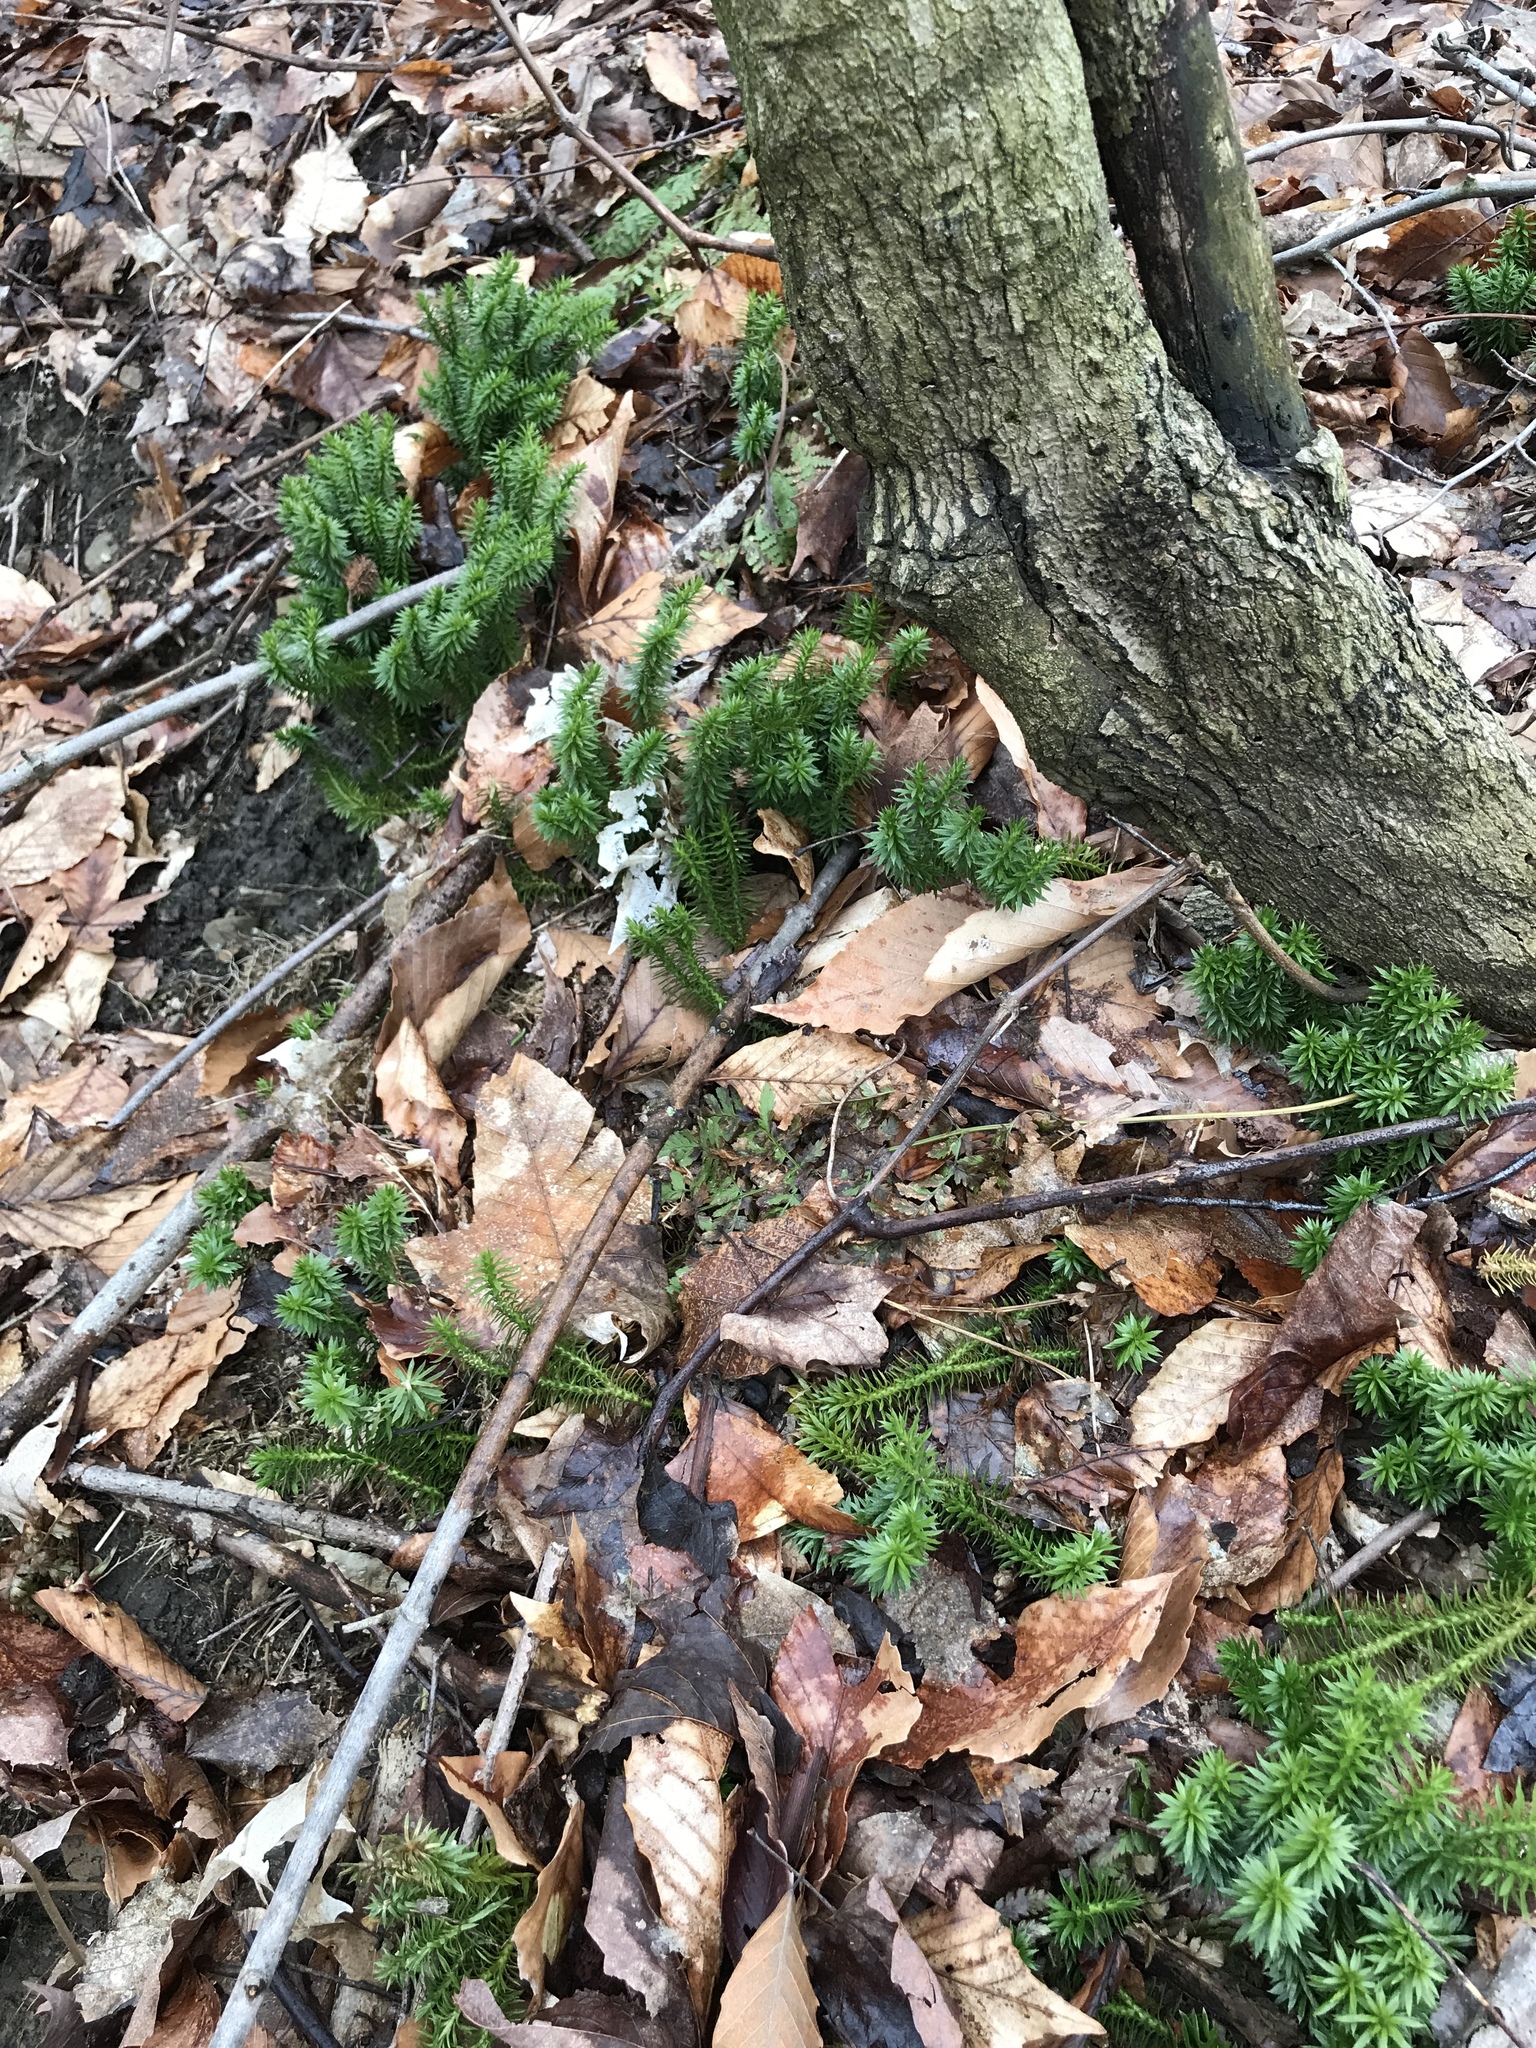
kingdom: Plantae
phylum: Tracheophyta
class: Lycopodiopsida
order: Lycopodiales
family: Lycopodiaceae
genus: Huperzia
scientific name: Huperzia lucidula
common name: Shining clubmoss
